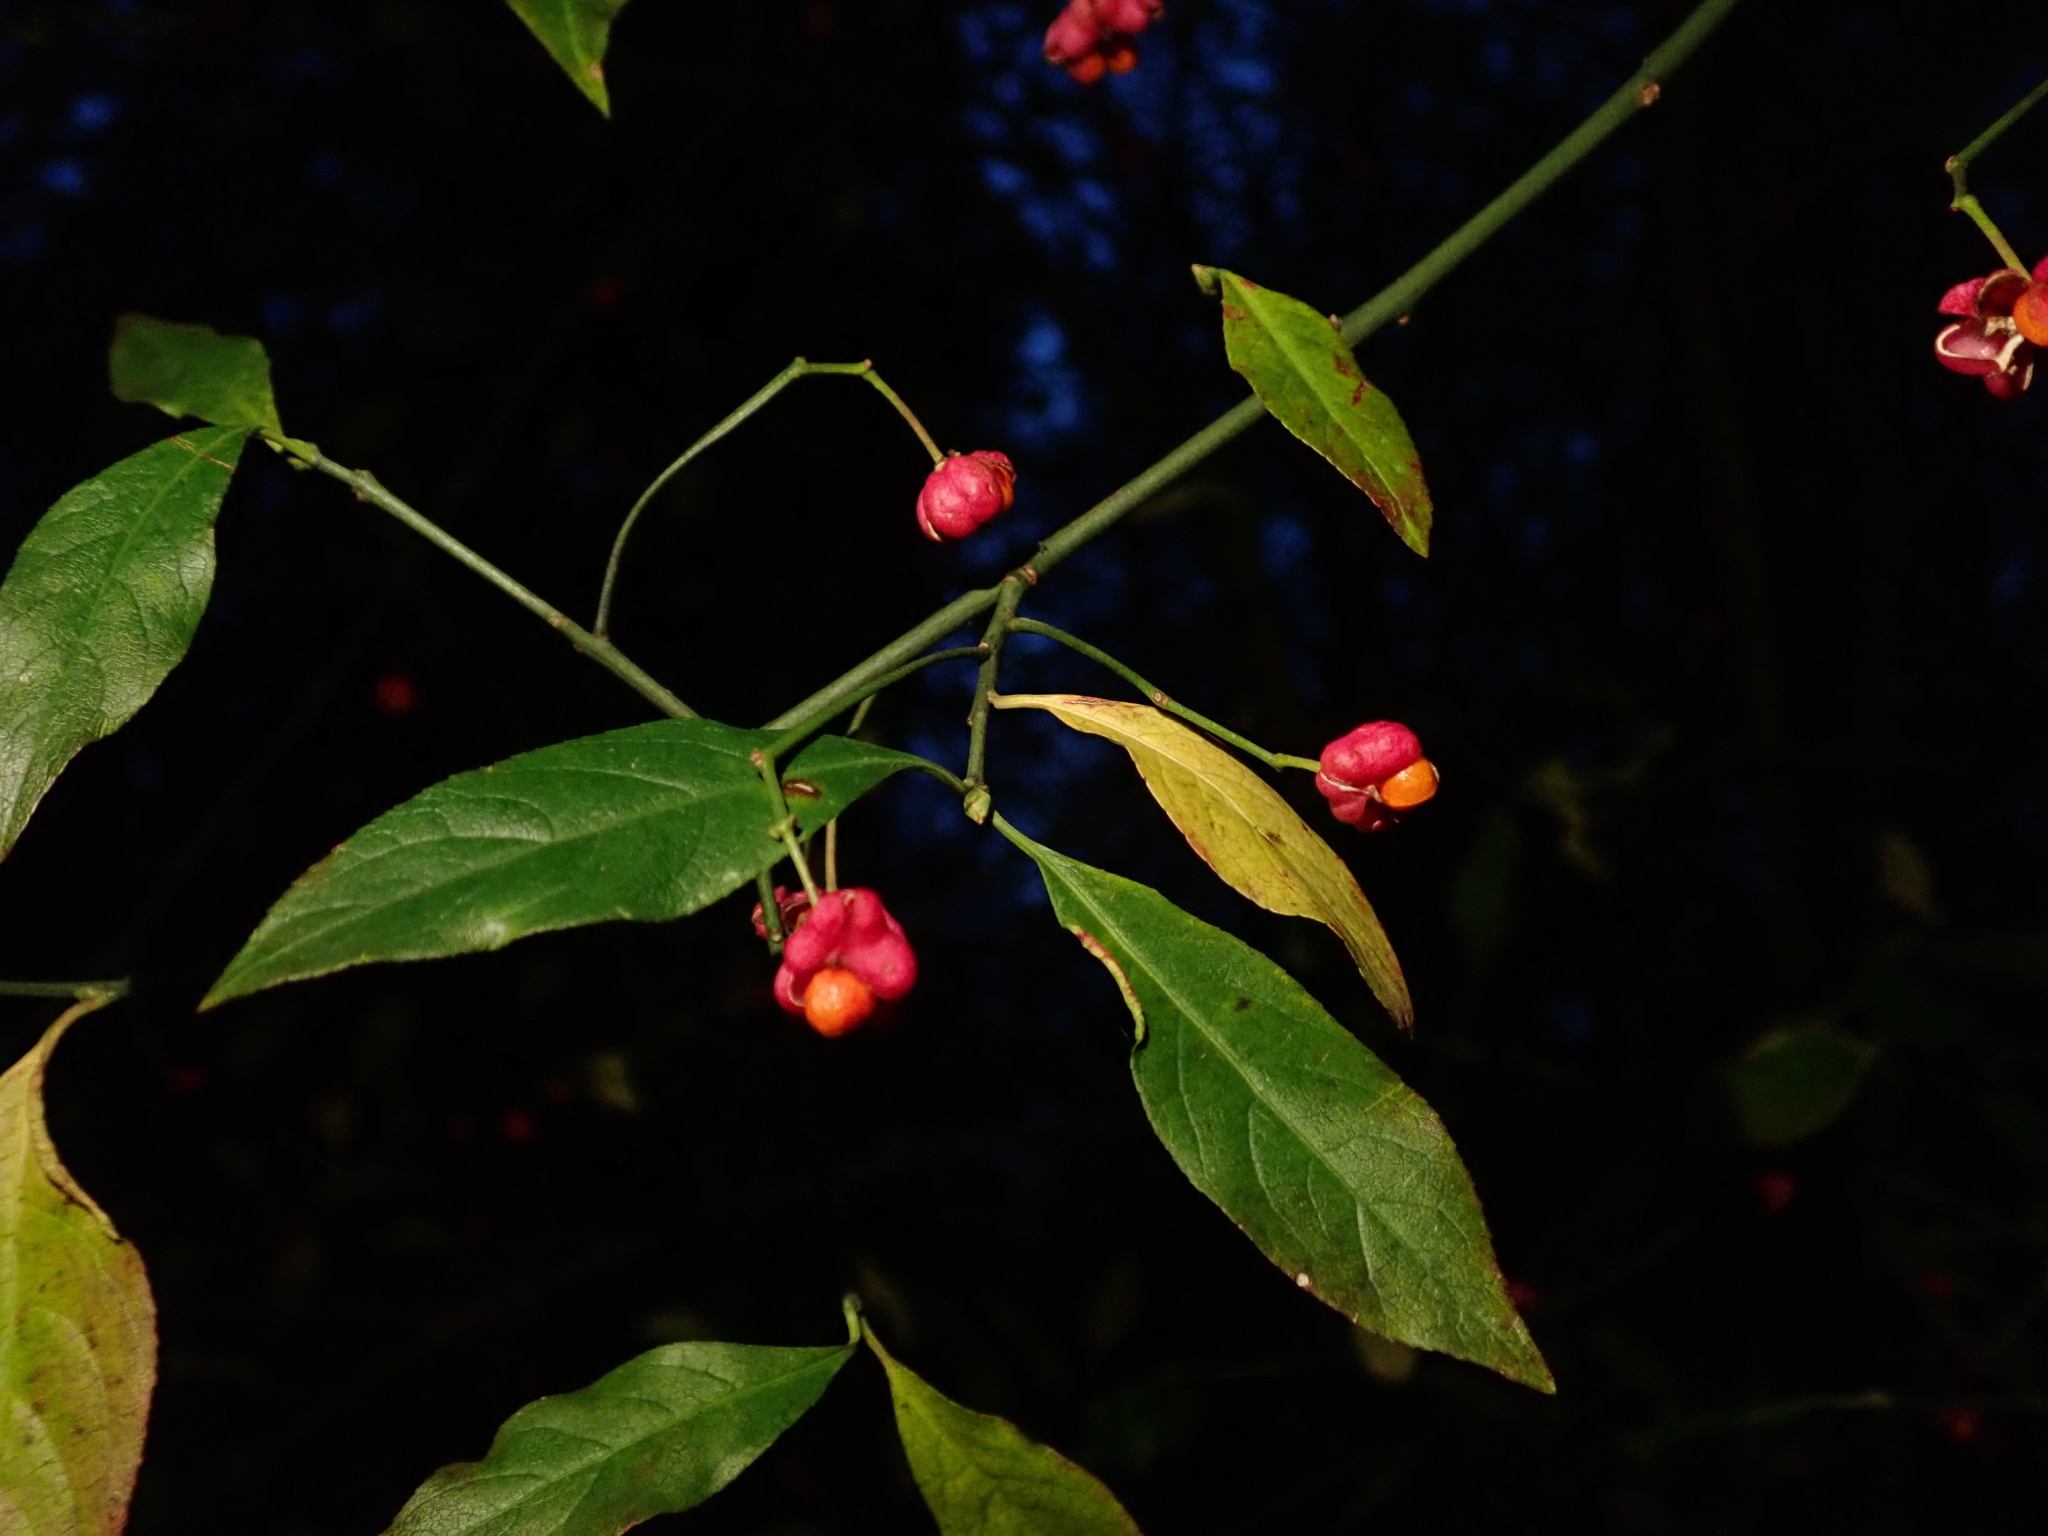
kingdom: Plantae
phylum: Tracheophyta
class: Magnoliopsida
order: Celastrales
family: Celastraceae
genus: Euonymus
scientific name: Euonymus europaeus
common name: Spindle
